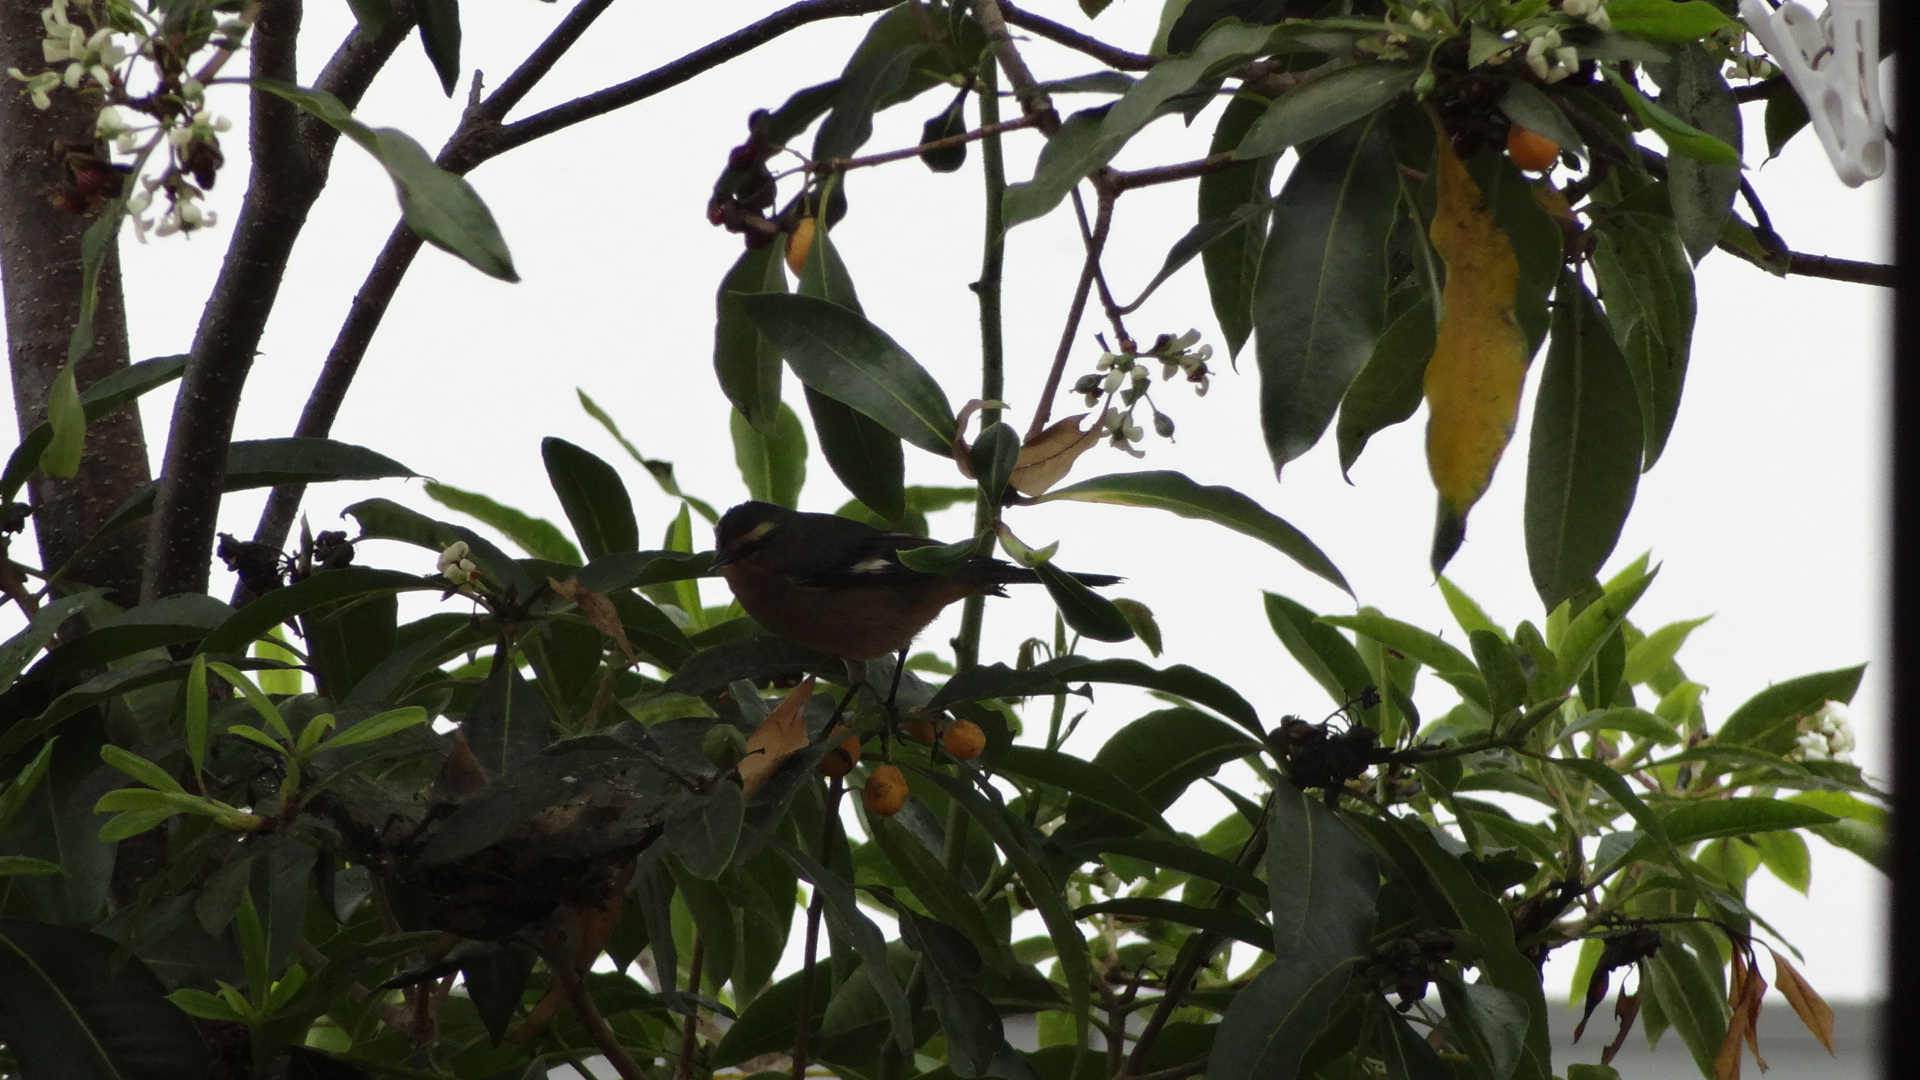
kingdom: Animalia
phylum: Chordata
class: Aves
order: Passeriformes
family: Thraupidae
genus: Conirostrum
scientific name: Conirostrum cinereum
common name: Cinereous conebill
